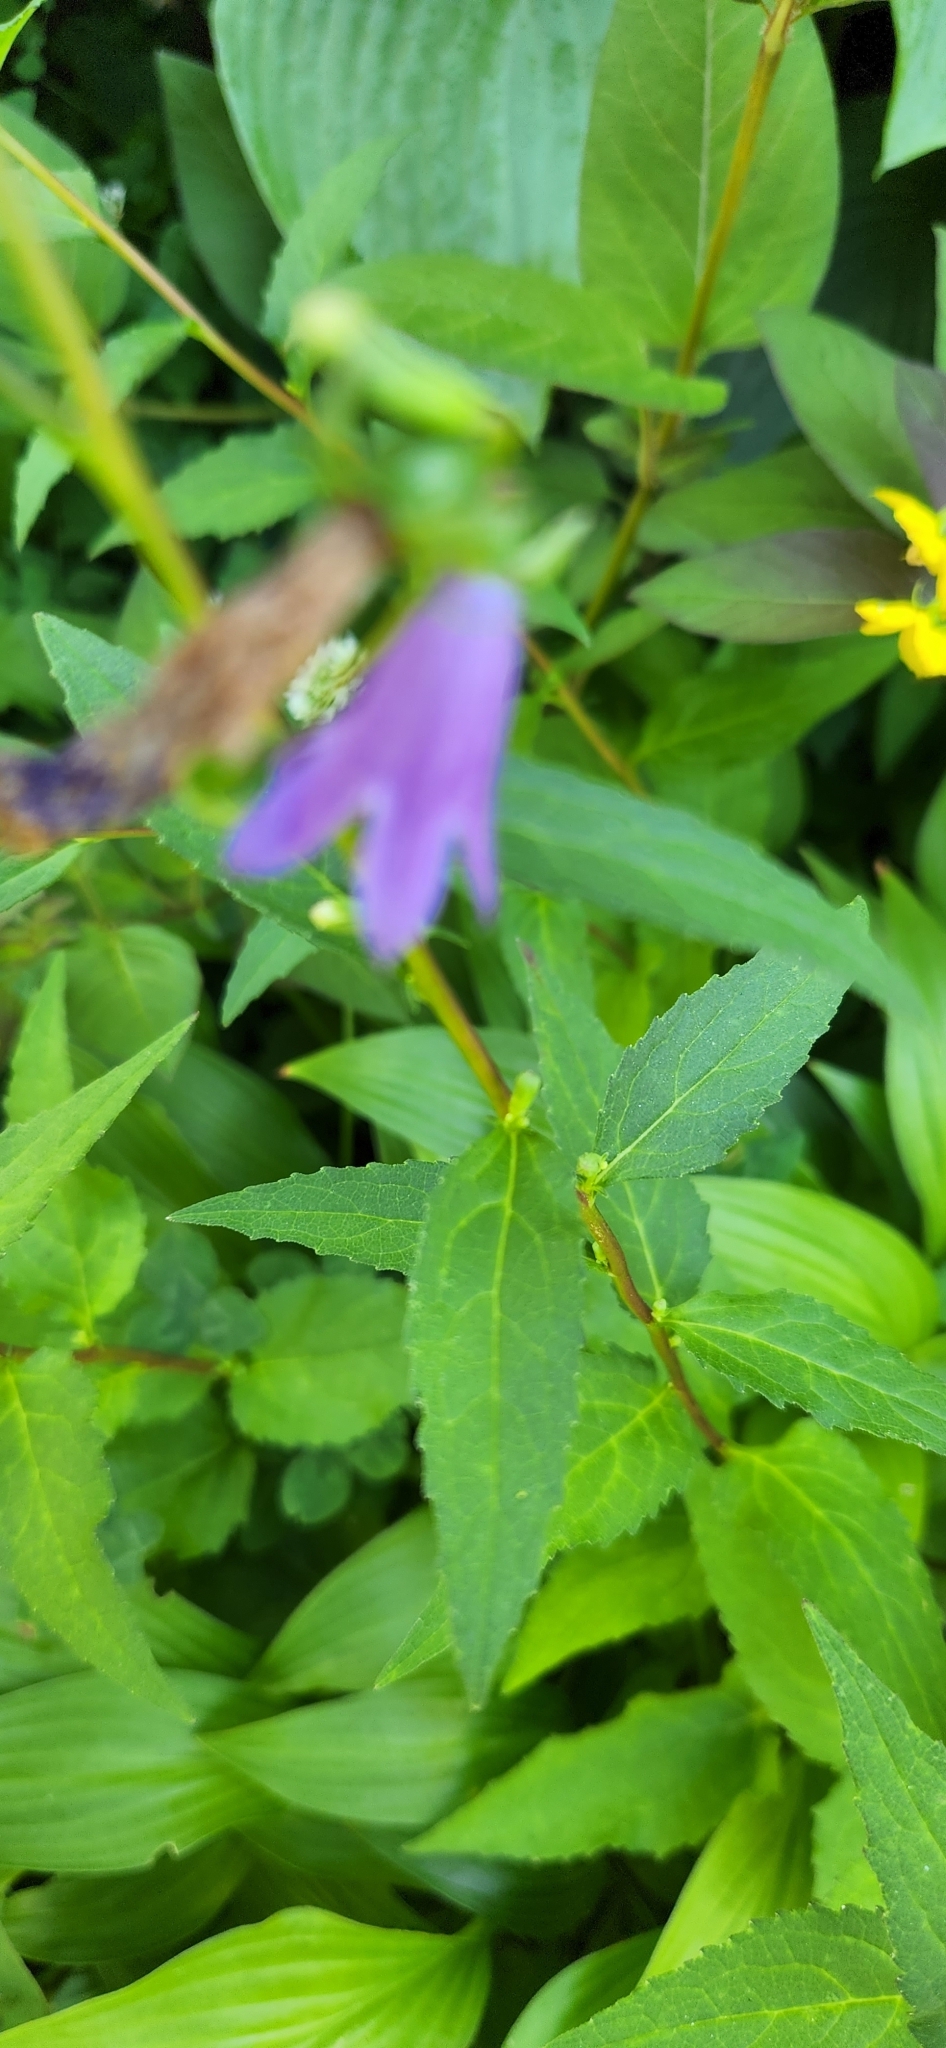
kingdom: Plantae
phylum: Tracheophyta
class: Magnoliopsida
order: Asterales
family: Campanulaceae
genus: Campanula
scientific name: Campanula rapunculoides
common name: Creeping bellflower
